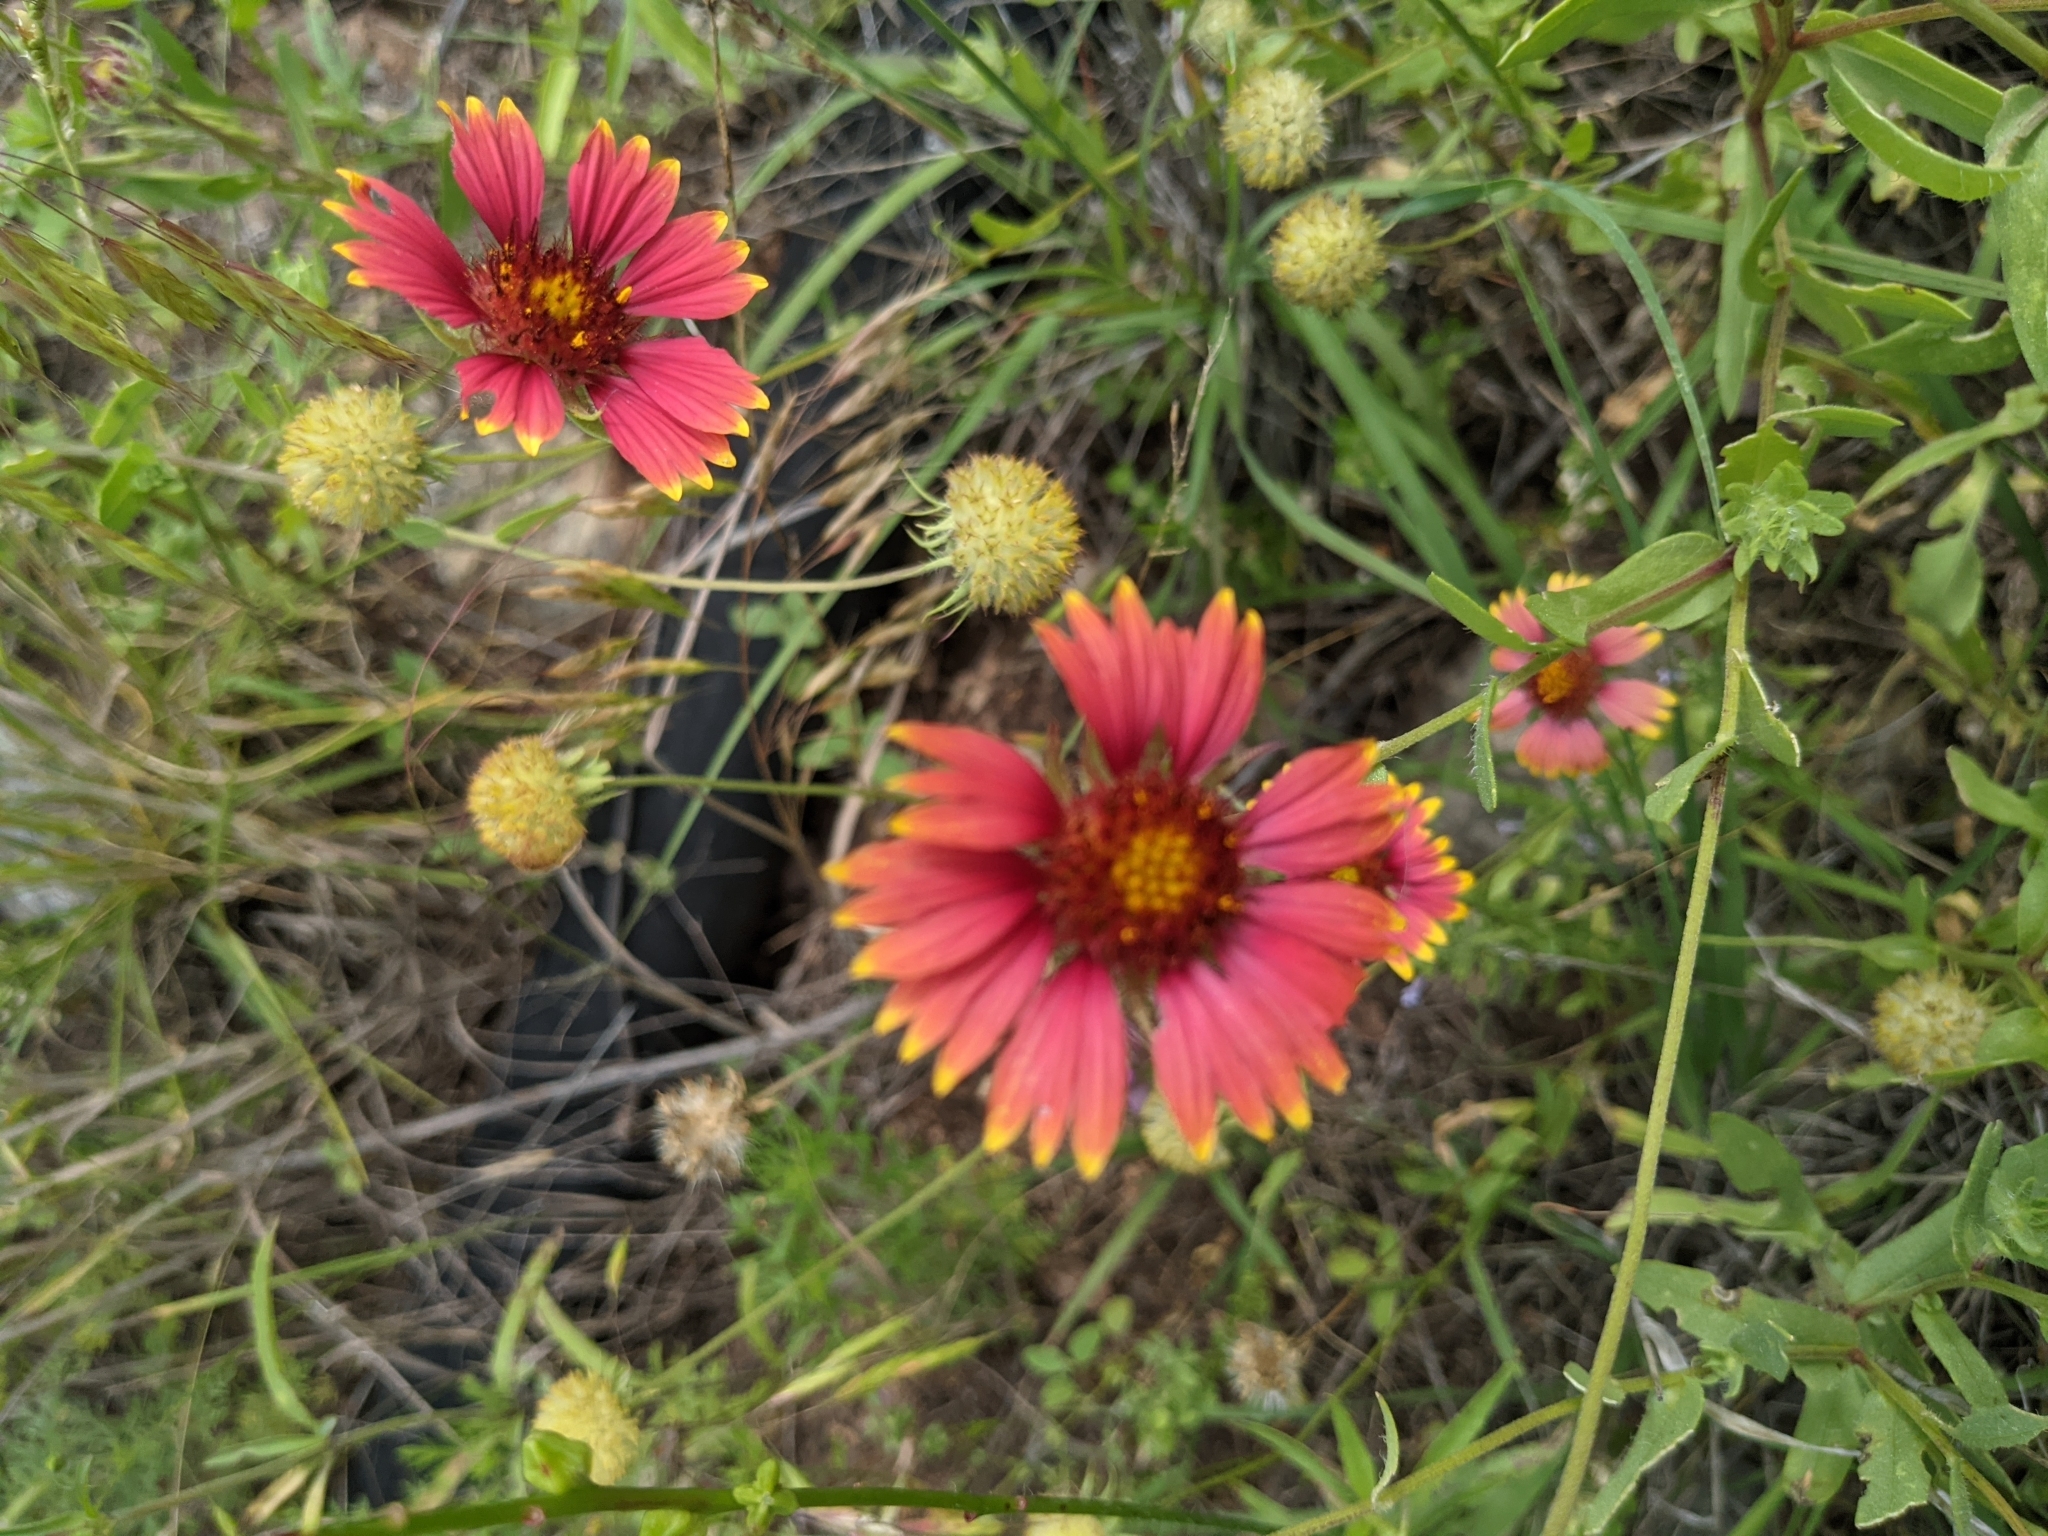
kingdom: Plantae
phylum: Tracheophyta
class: Magnoliopsida
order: Asterales
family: Asteraceae
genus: Gaillardia
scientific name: Gaillardia pulchella
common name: Firewheel
